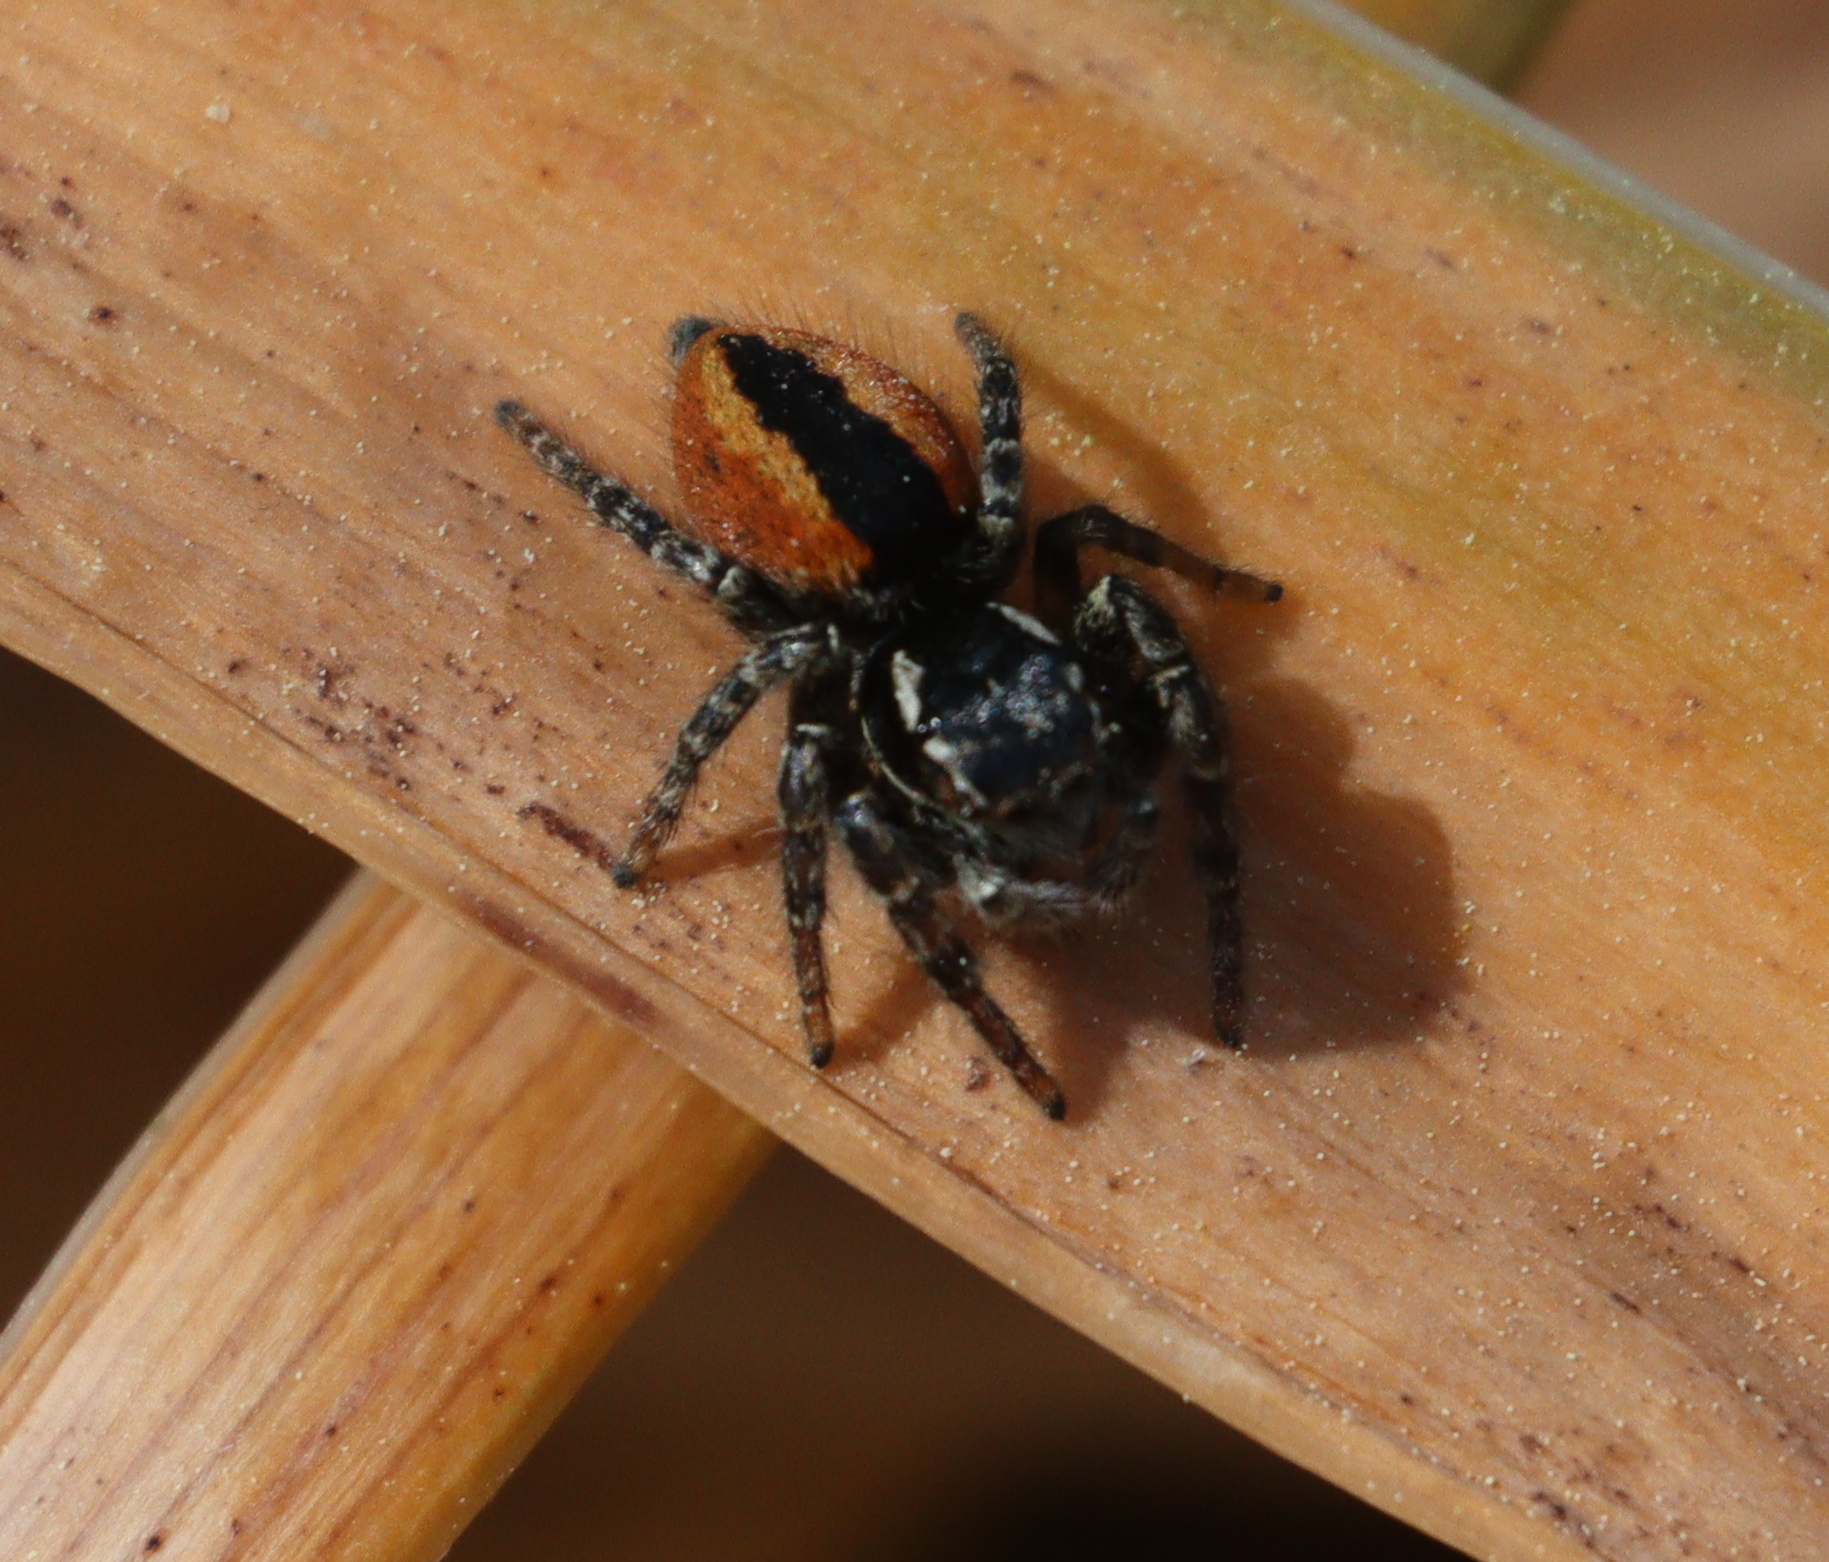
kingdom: Animalia
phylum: Arthropoda
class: Arachnida
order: Araneae
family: Salticidae
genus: Philaeus
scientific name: Philaeus chrysops
